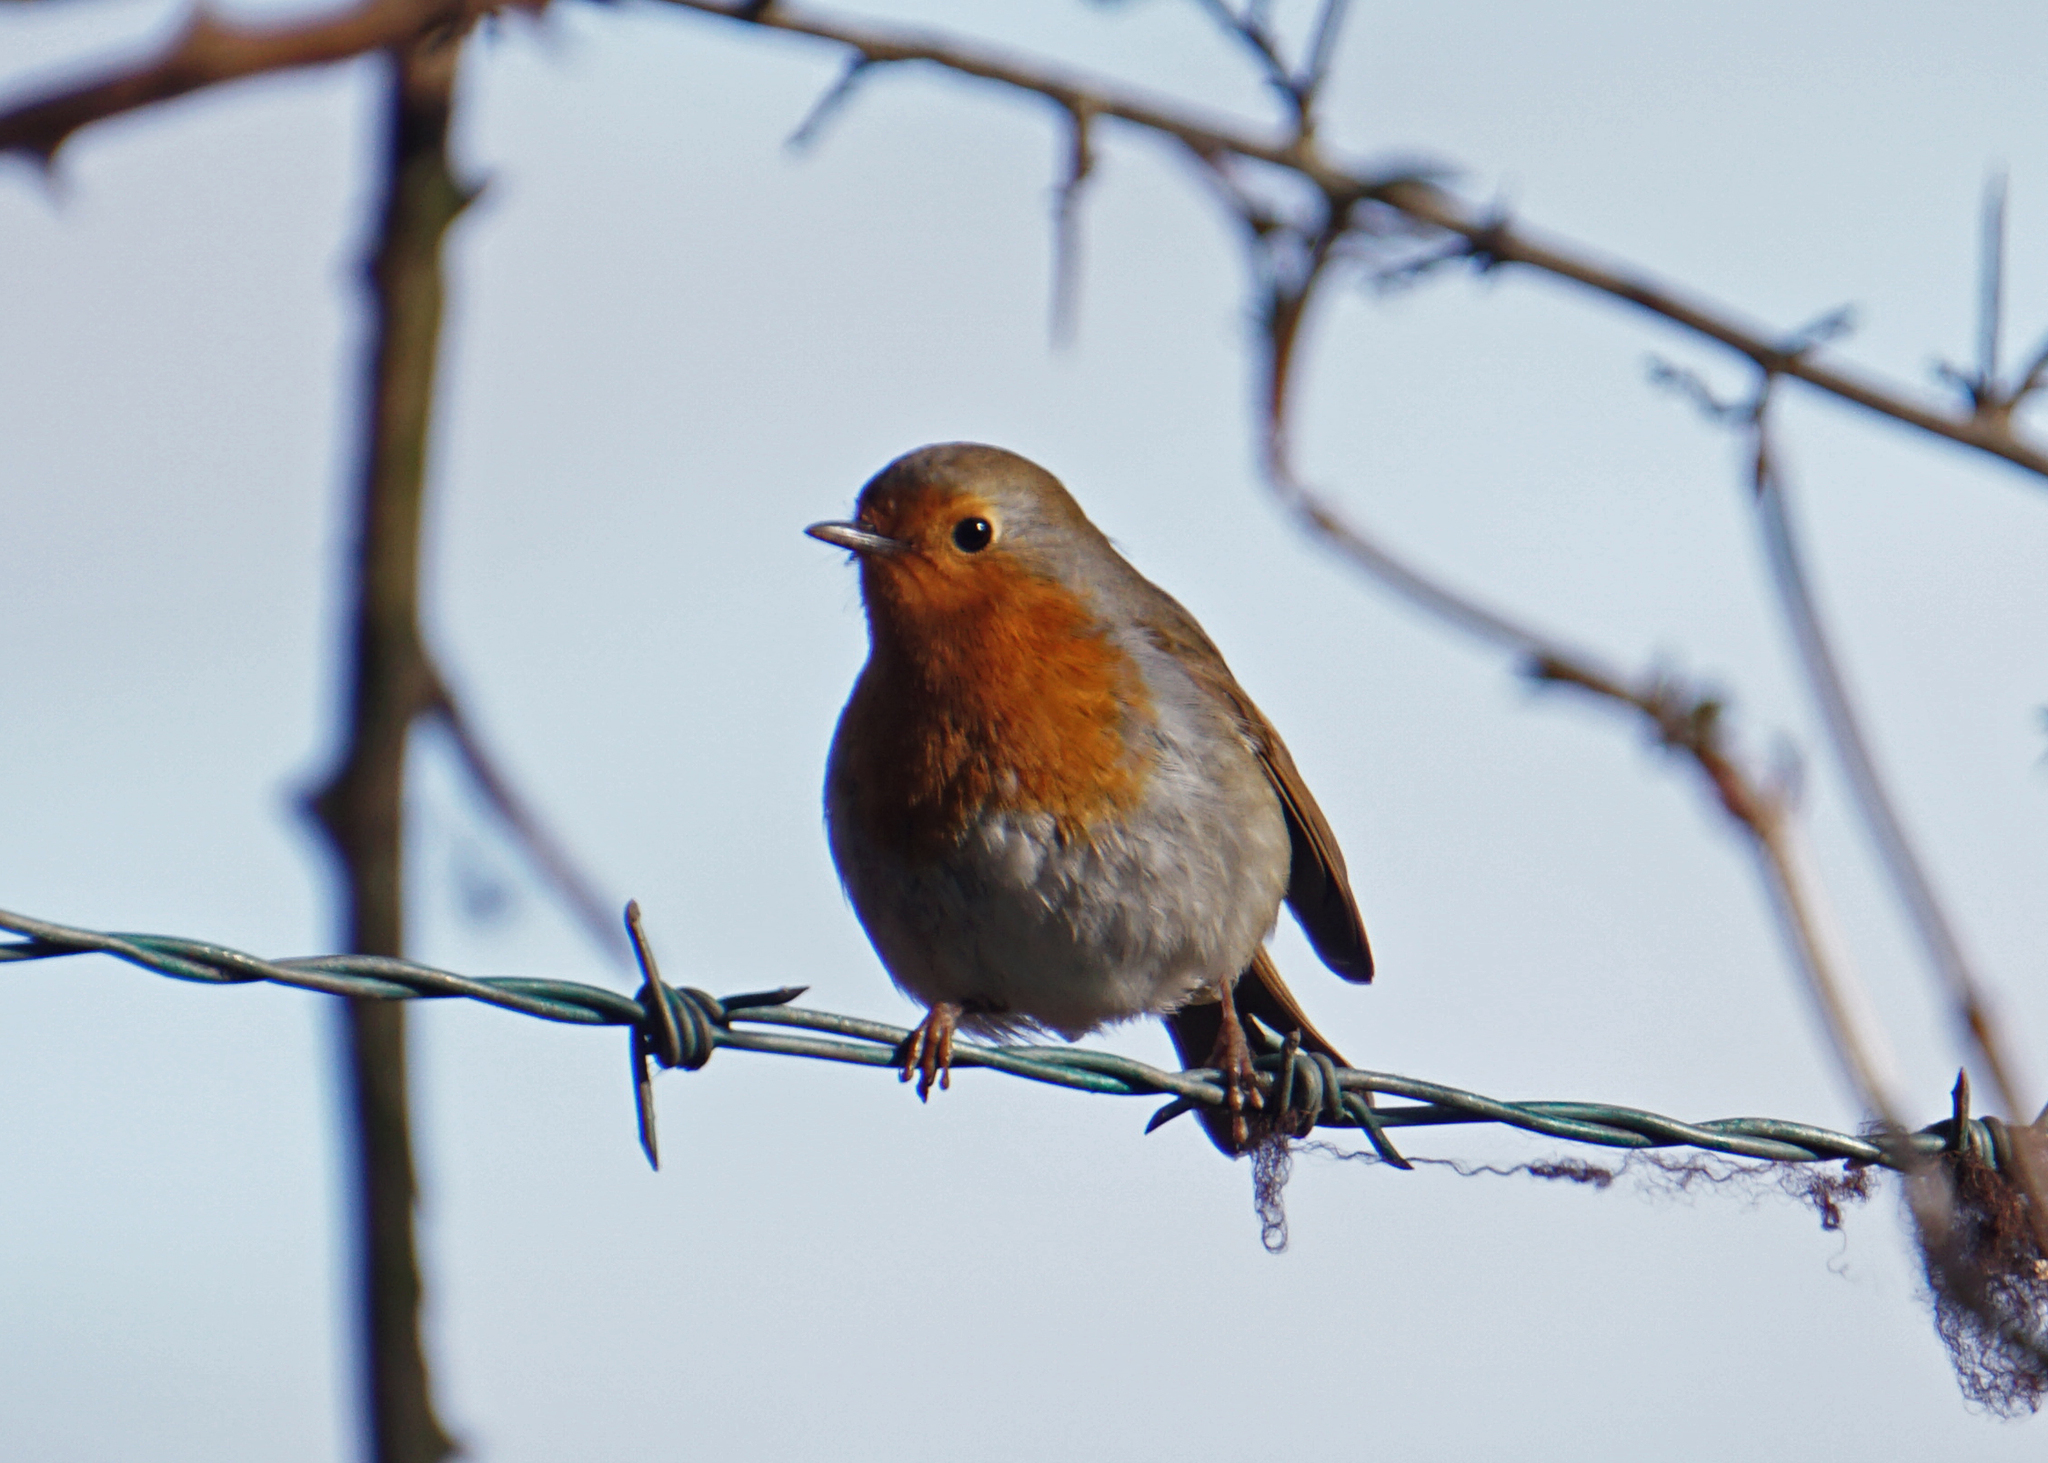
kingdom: Animalia
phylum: Chordata
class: Aves
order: Passeriformes
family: Muscicapidae
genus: Erithacus
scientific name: Erithacus rubecula
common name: European robin
